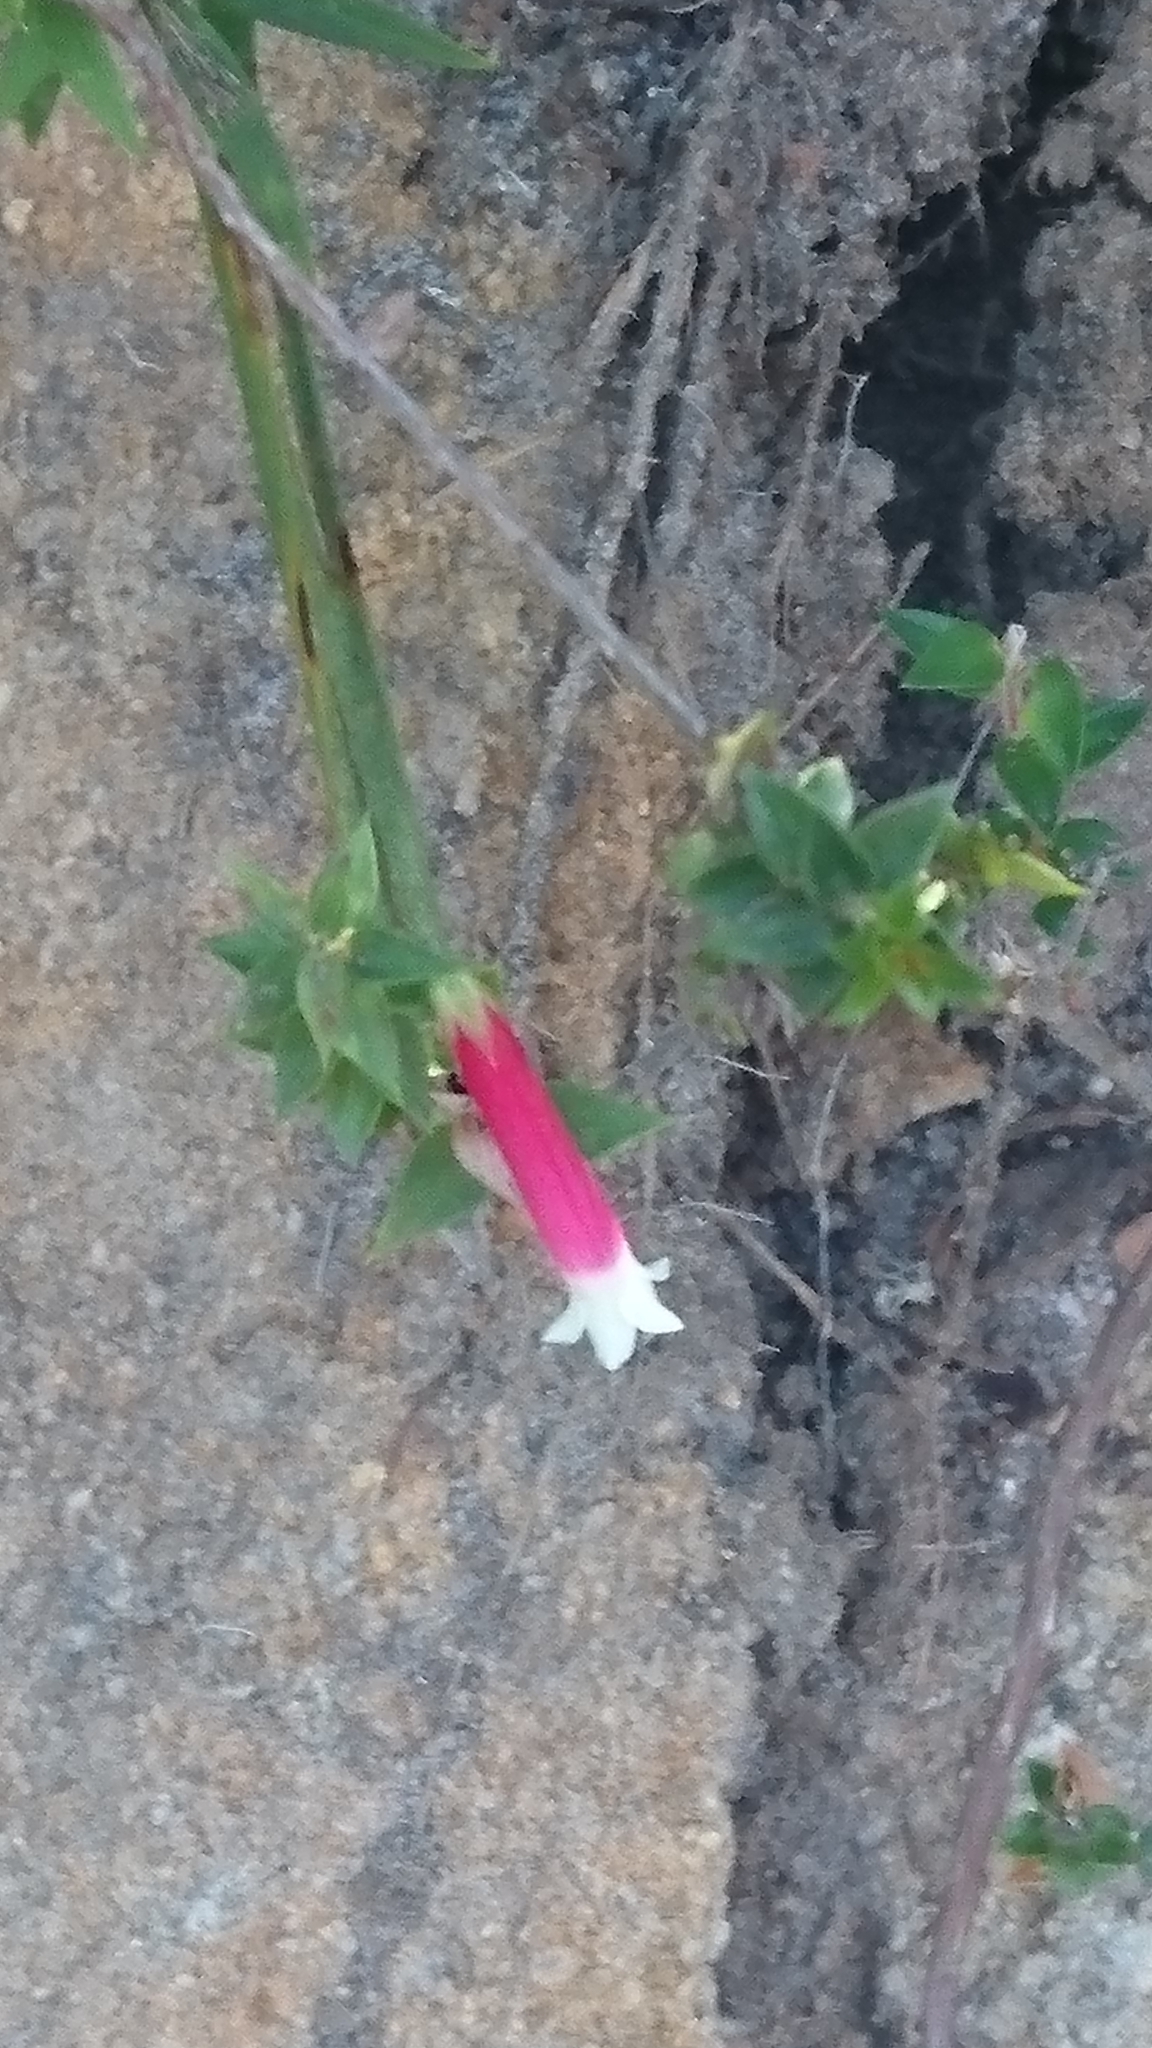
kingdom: Plantae
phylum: Tracheophyta
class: Magnoliopsida
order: Ericales
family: Ericaceae
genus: Epacris
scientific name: Epacris longiflora
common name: Fuchsia-heath
